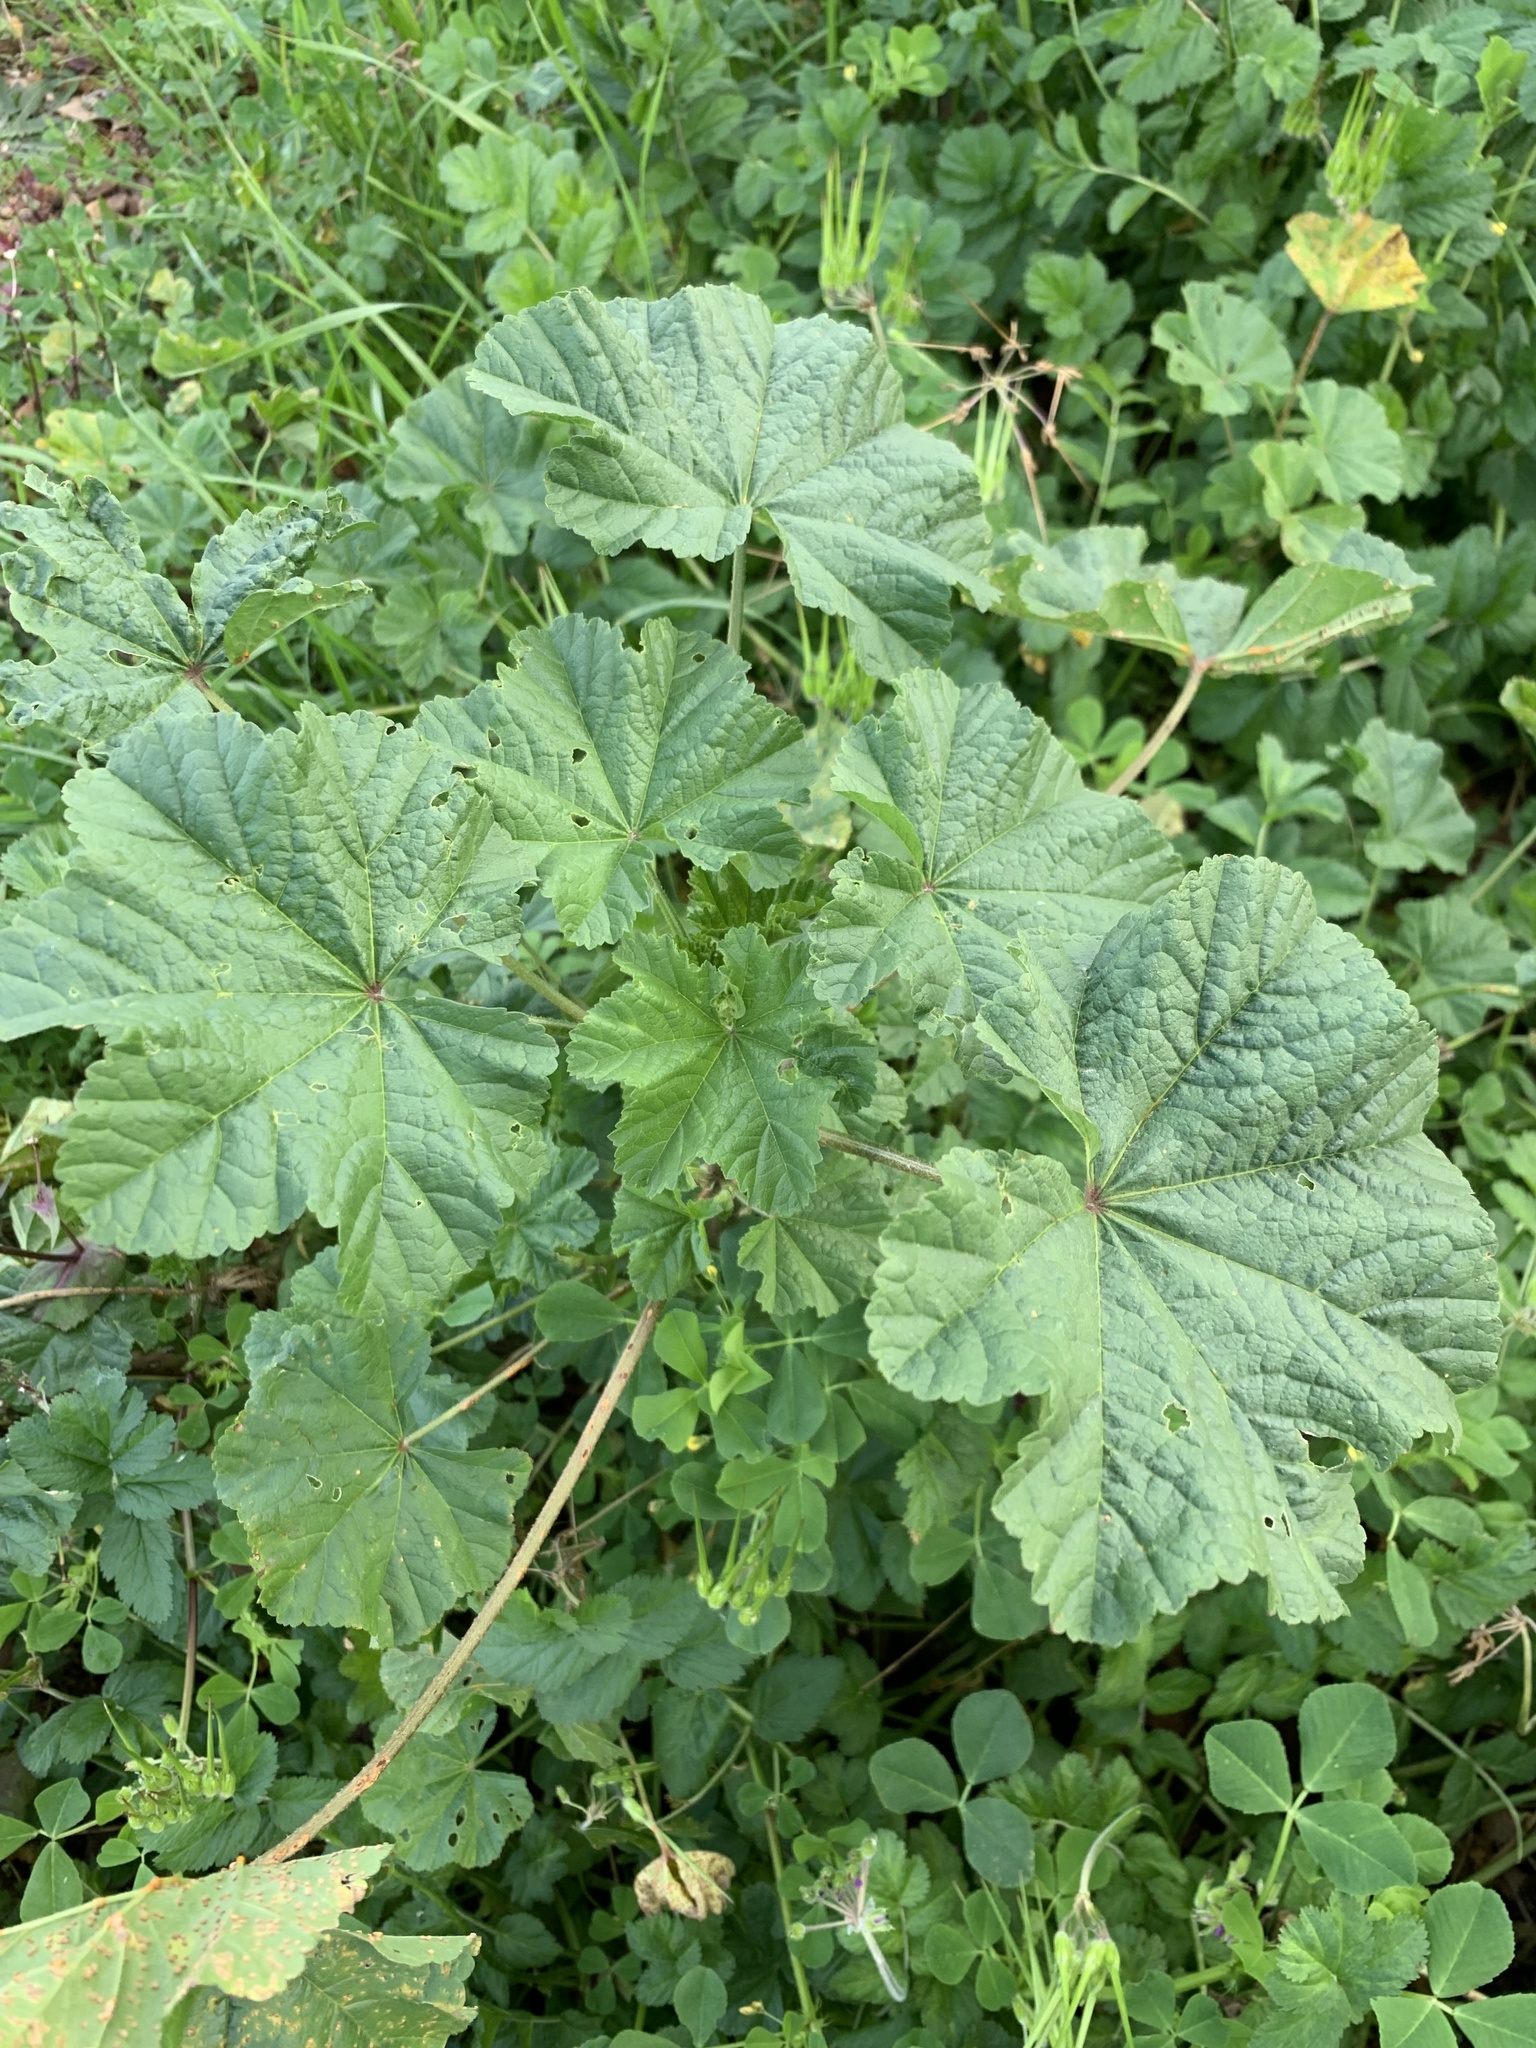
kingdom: Plantae
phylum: Tracheophyta
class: Magnoliopsida
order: Malvales
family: Malvaceae
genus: Malva
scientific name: Malva parviflora
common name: Least mallow
